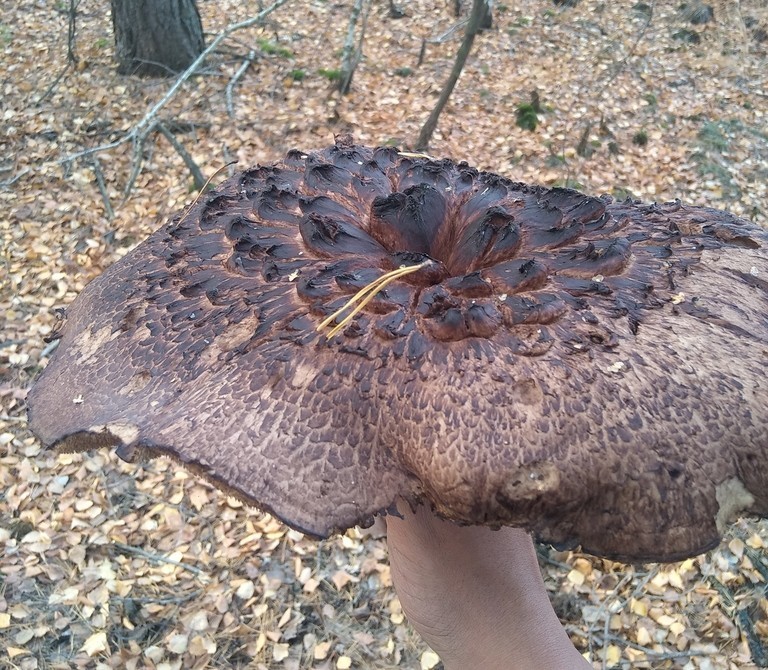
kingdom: Fungi
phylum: Basidiomycota
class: Agaricomycetes
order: Thelephorales
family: Bankeraceae
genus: Sarcodon
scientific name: Sarcodon imbricatus
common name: Shingled hedgehog
